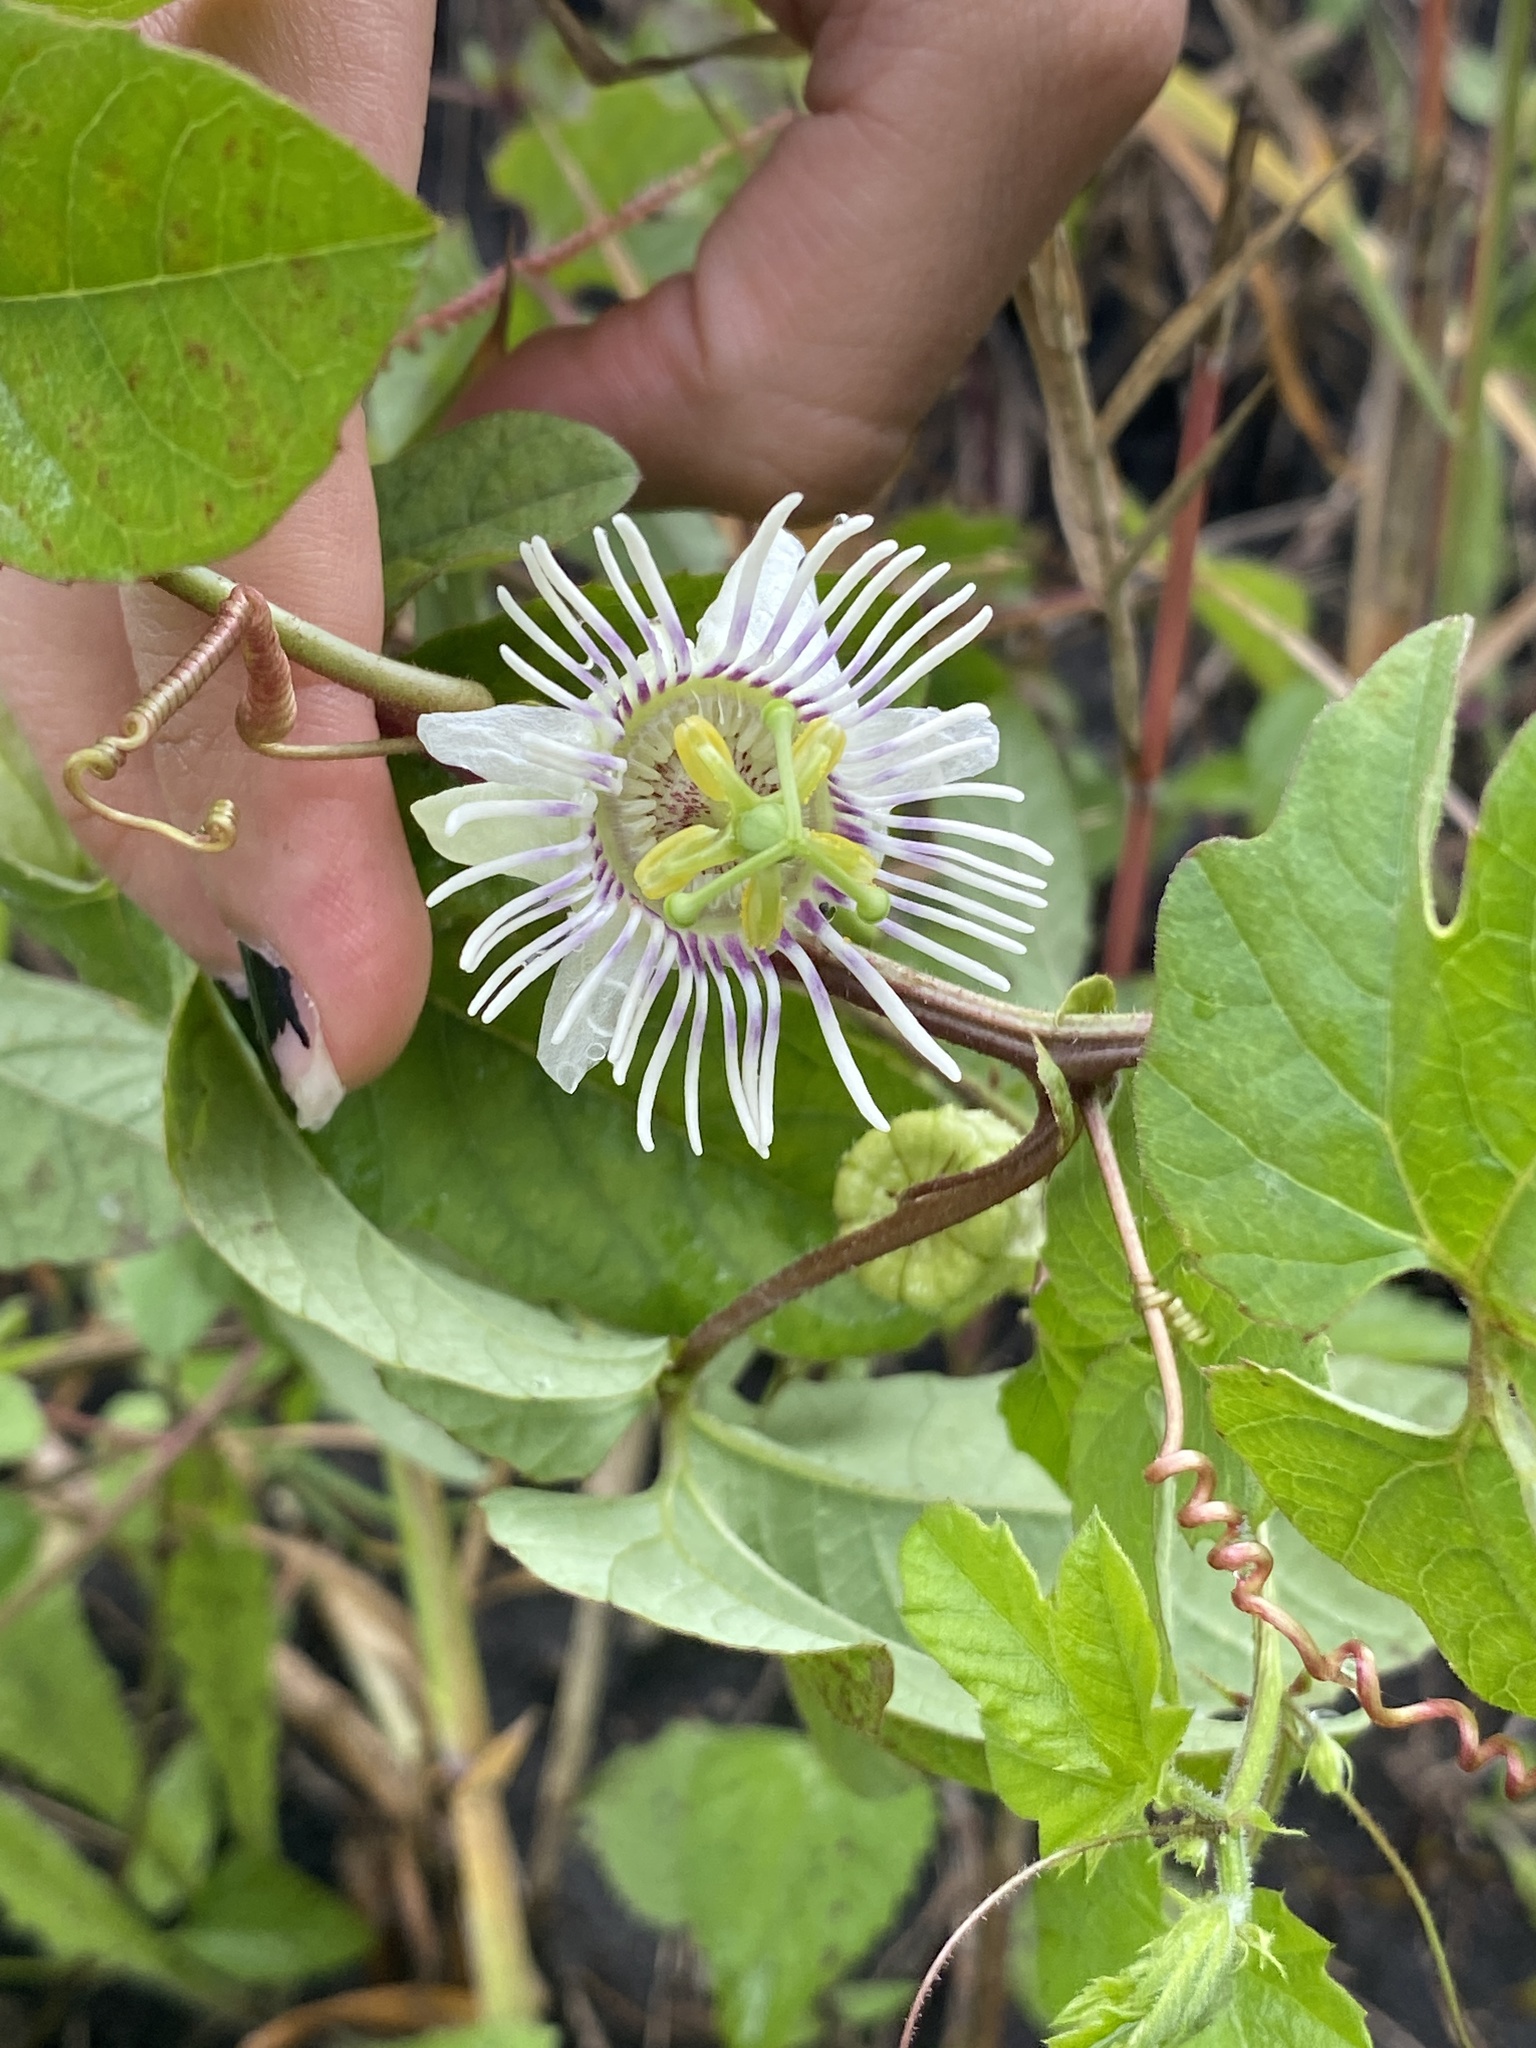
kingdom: Plantae
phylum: Tracheophyta
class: Magnoliopsida
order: Malpighiales
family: Passifloraceae
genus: Passiflora
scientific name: Passiflora bryonioides
